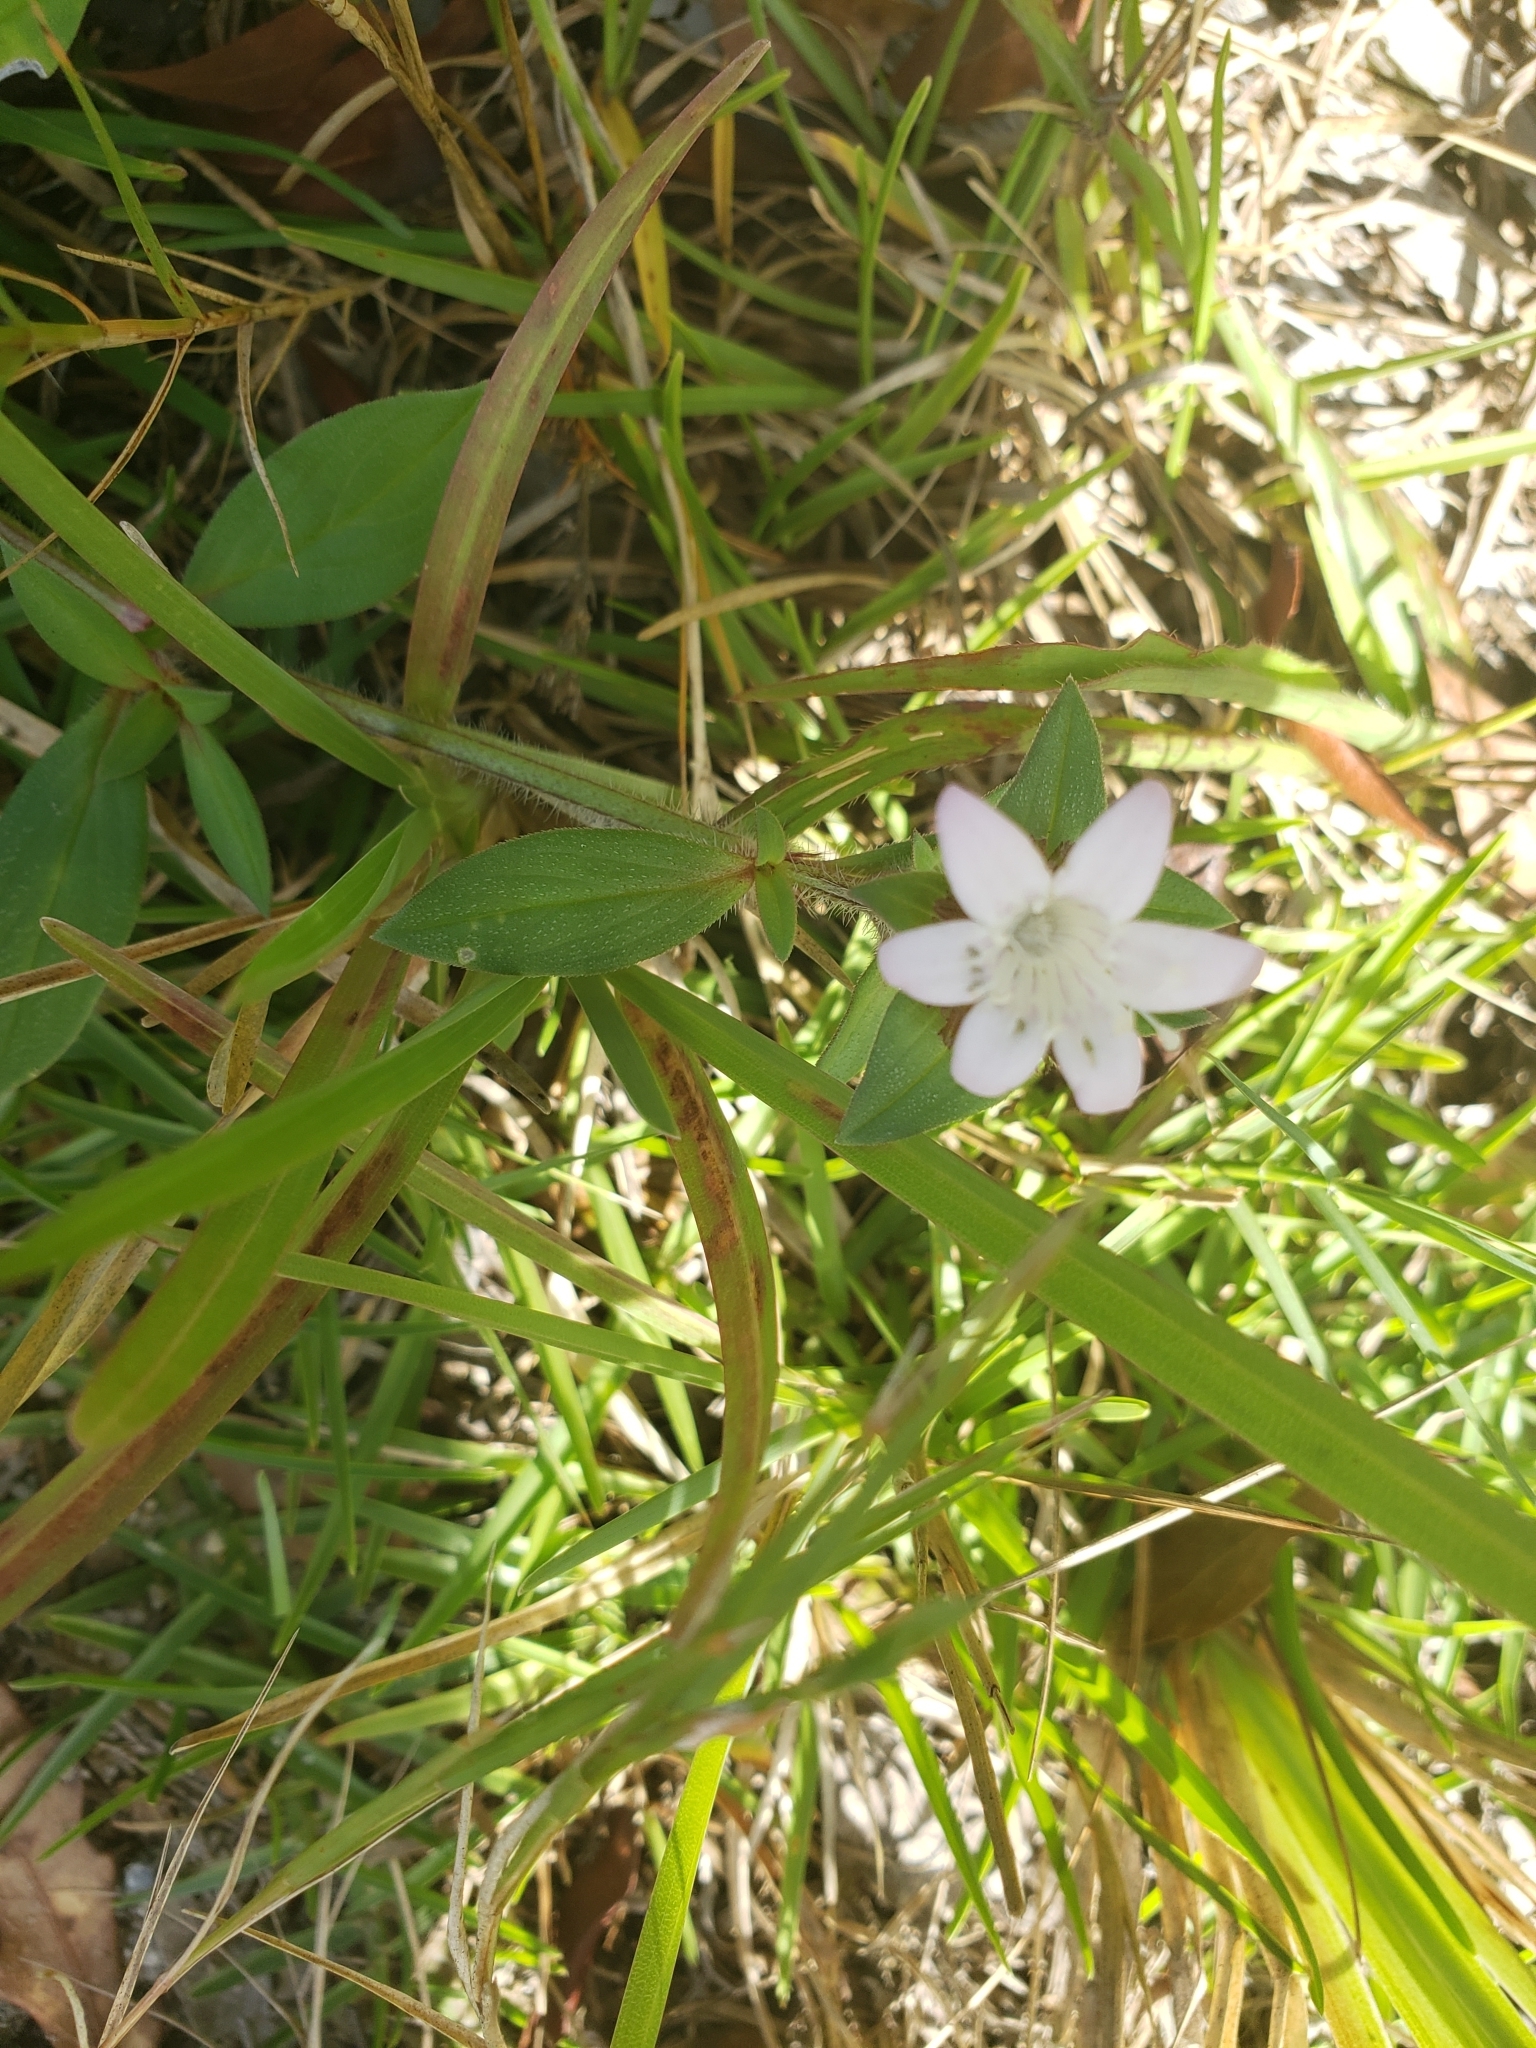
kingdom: Plantae
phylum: Tracheophyta
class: Magnoliopsida
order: Gentianales
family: Rubiaceae
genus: Richardia
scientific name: Richardia grandiflora
